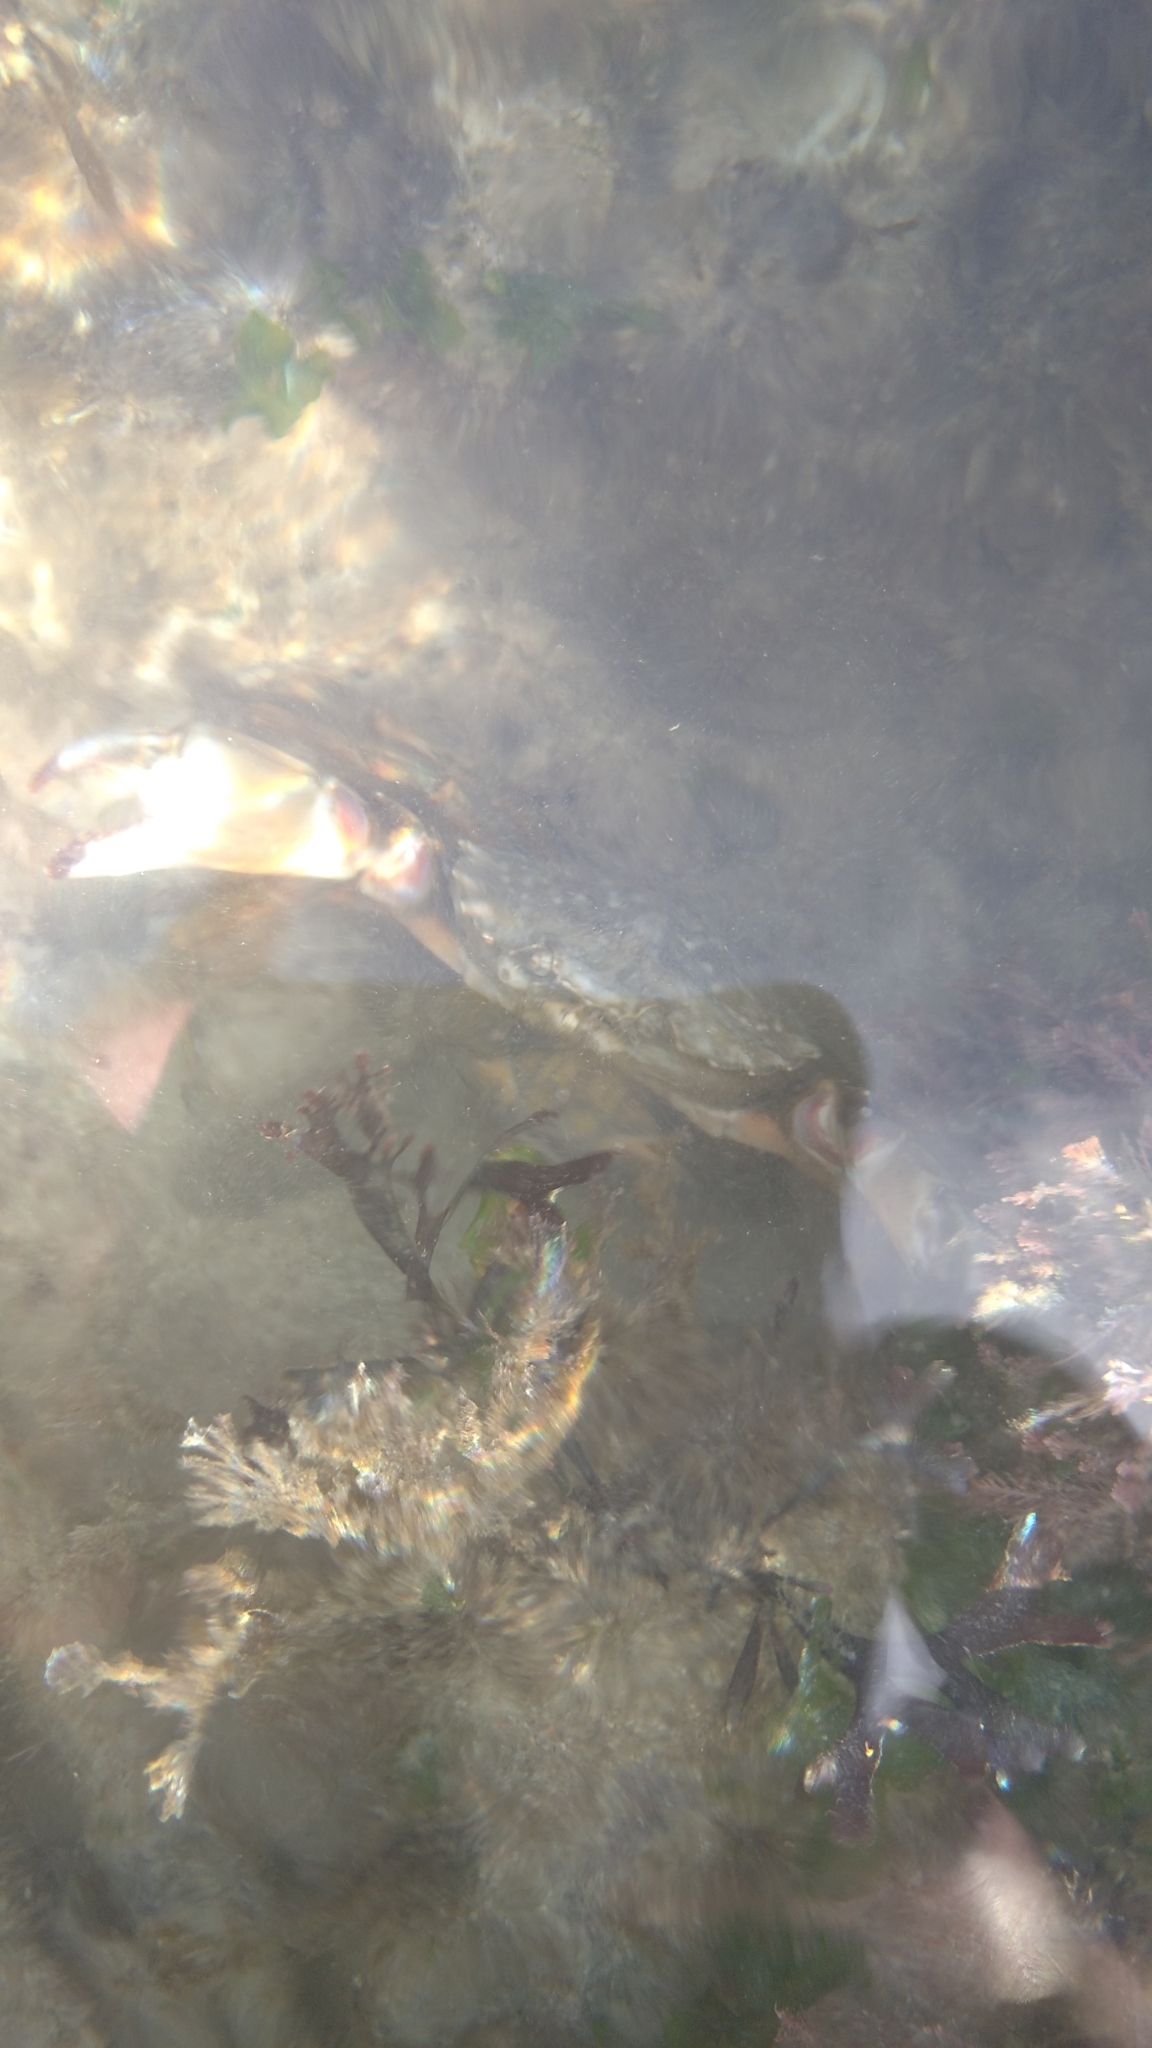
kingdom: Animalia
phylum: Arthropoda
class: Malacostraca
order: Decapoda
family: Carcinidae
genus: Carcinus
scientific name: Carcinus maenas
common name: European green crab
